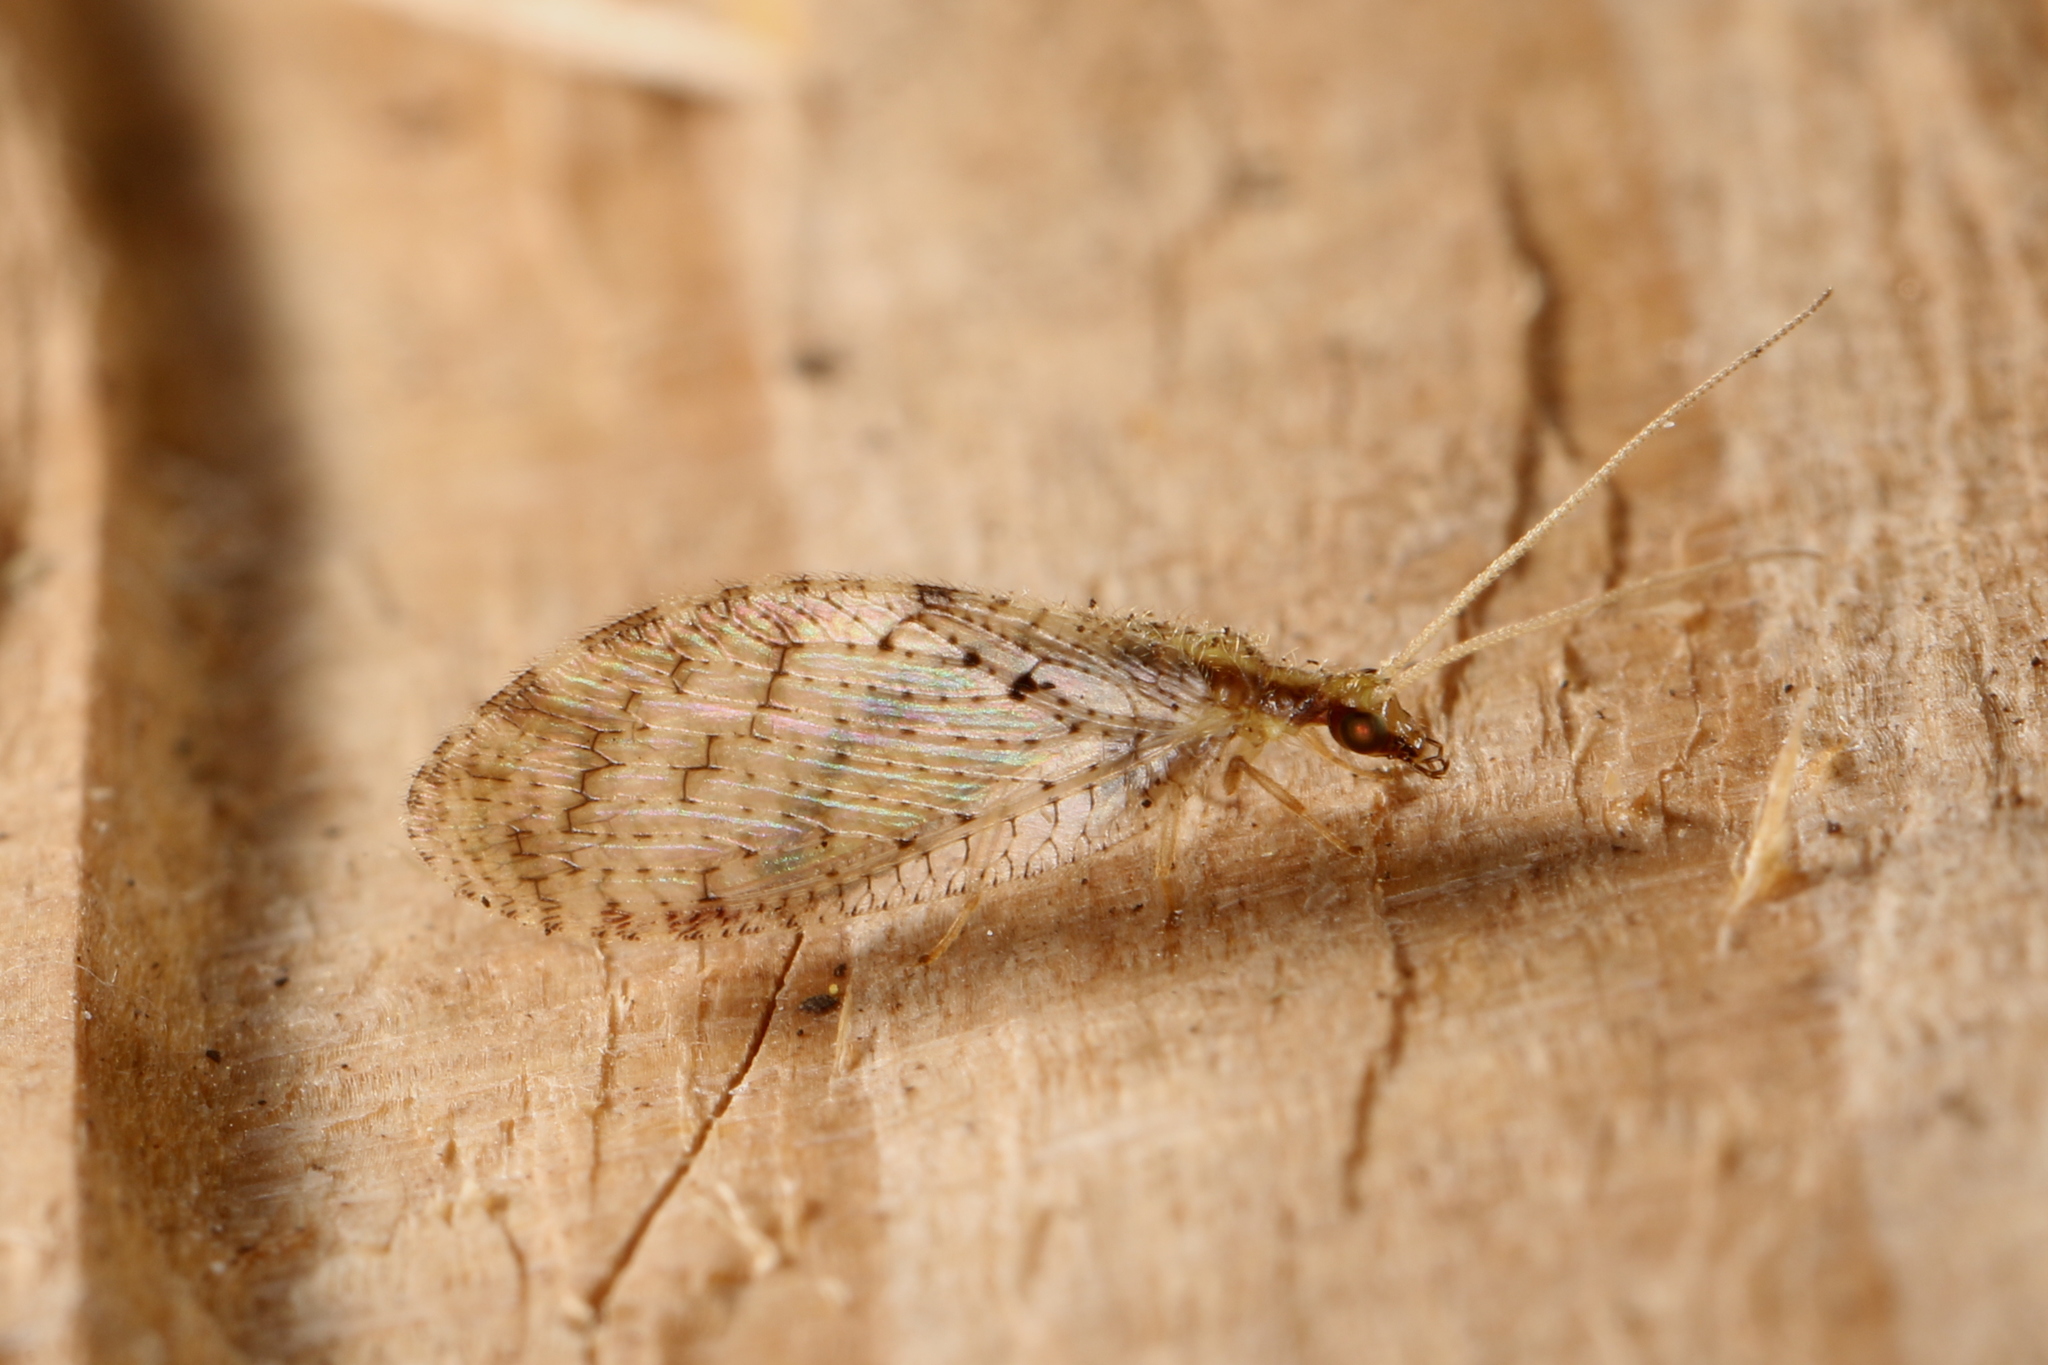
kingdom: Animalia
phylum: Arthropoda
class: Insecta
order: Neuroptera
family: Hemerobiidae
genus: Hemerobius
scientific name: Hemerobius humulinus
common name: Humulin brown lacewing
